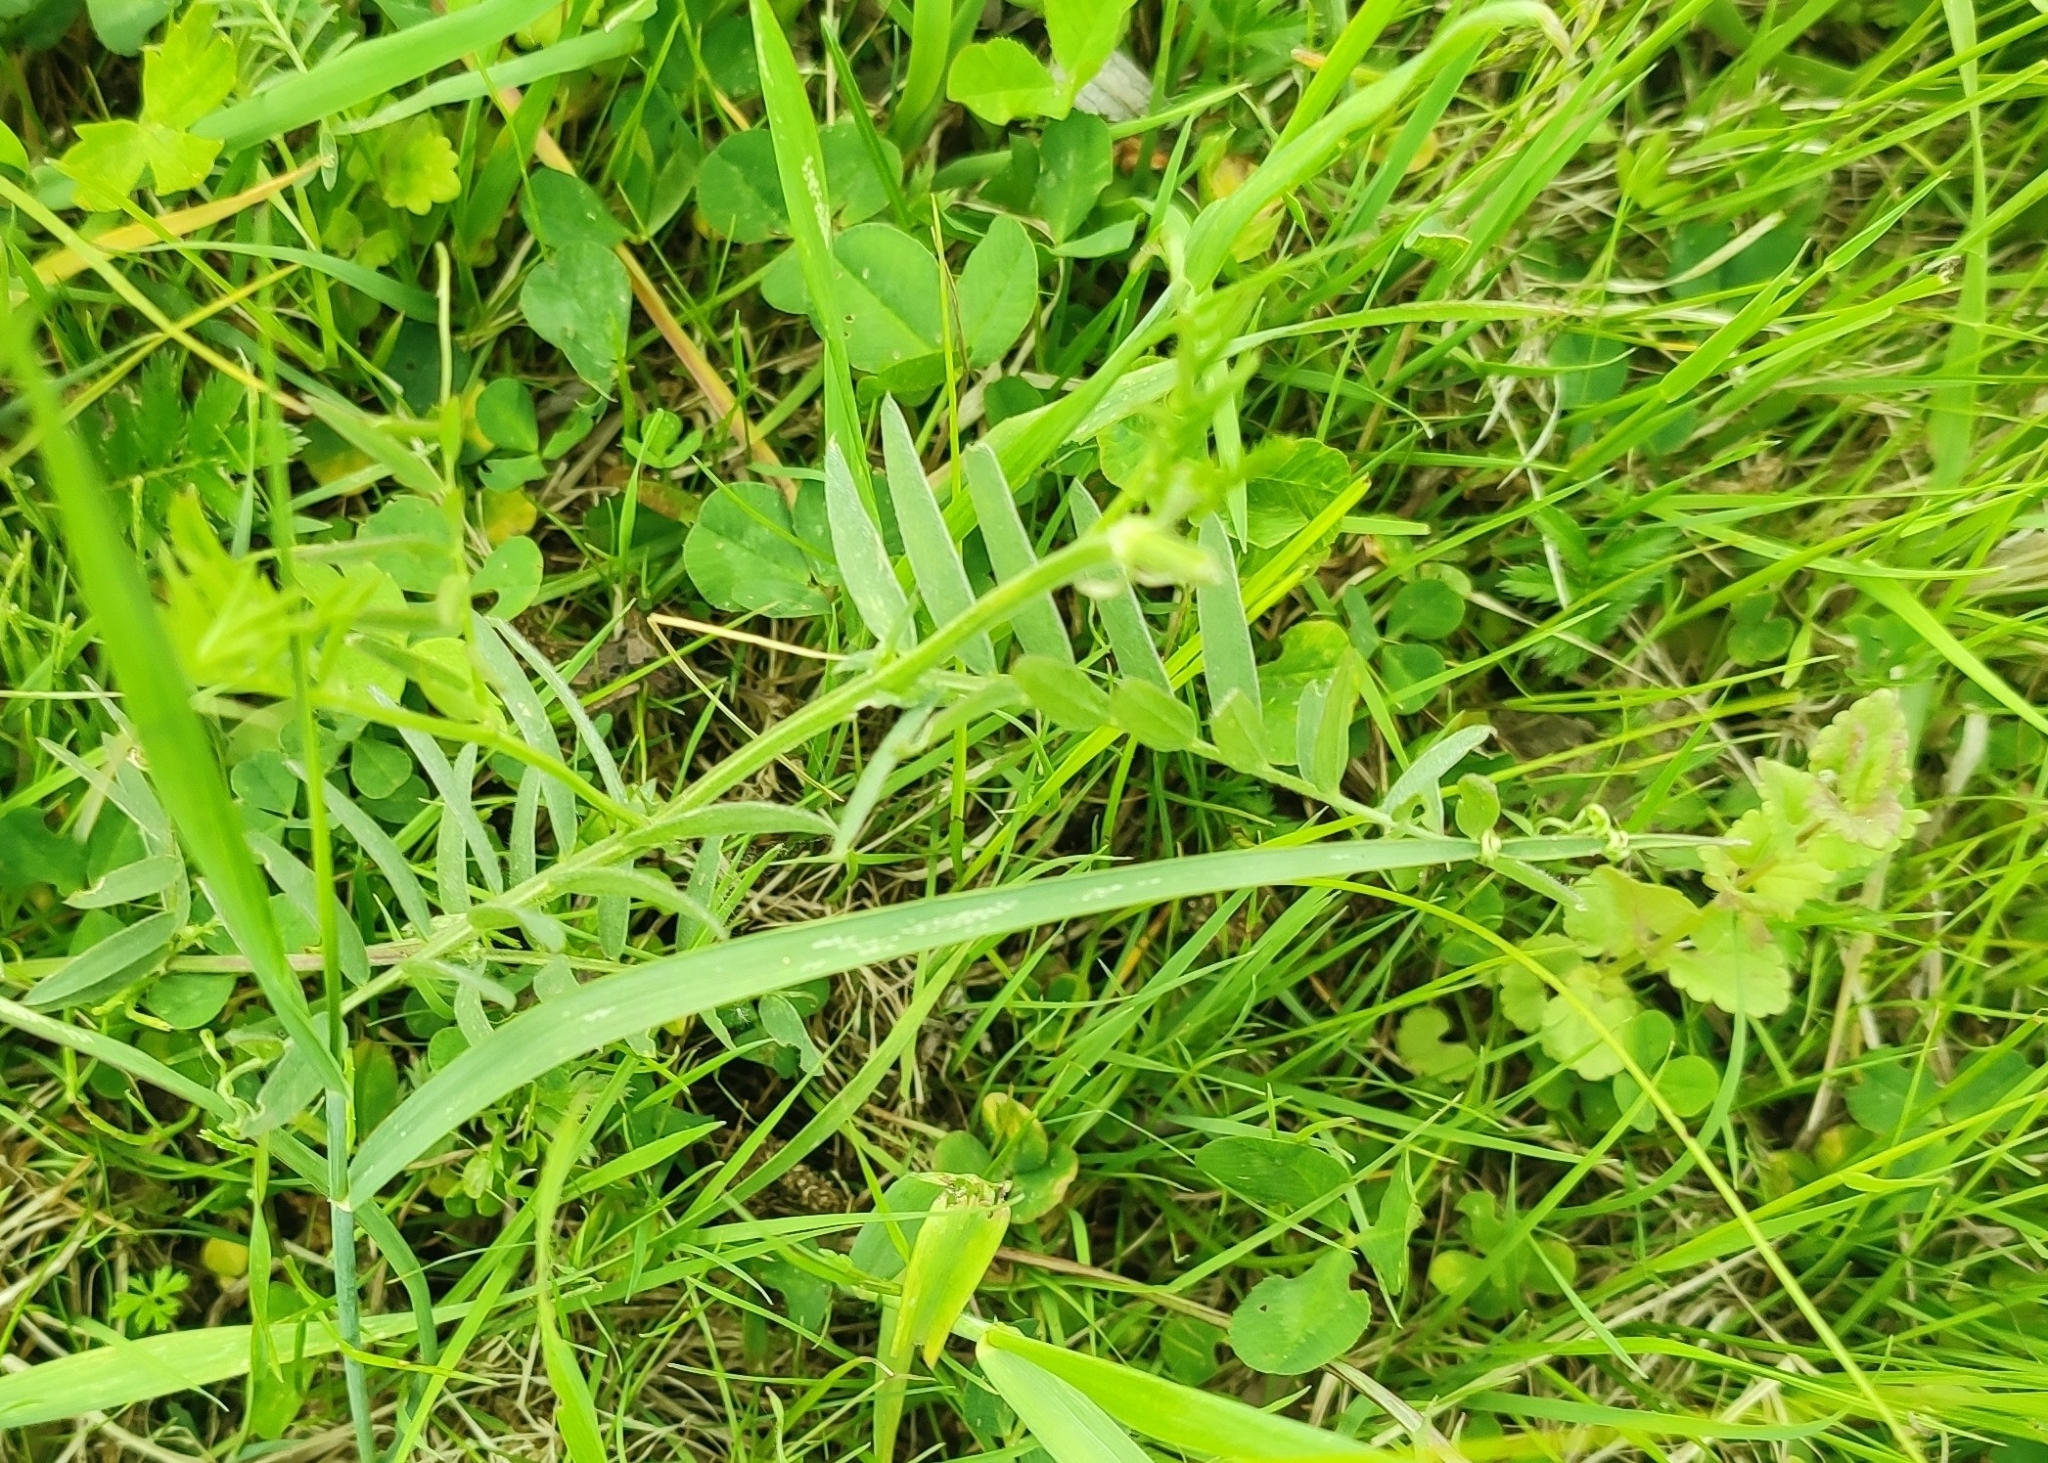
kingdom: Plantae
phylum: Tracheophyta
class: Magnoliopsida
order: Fabales
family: Fabaceae
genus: Vicia
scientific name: Vicia cracca
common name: Bird vetch
